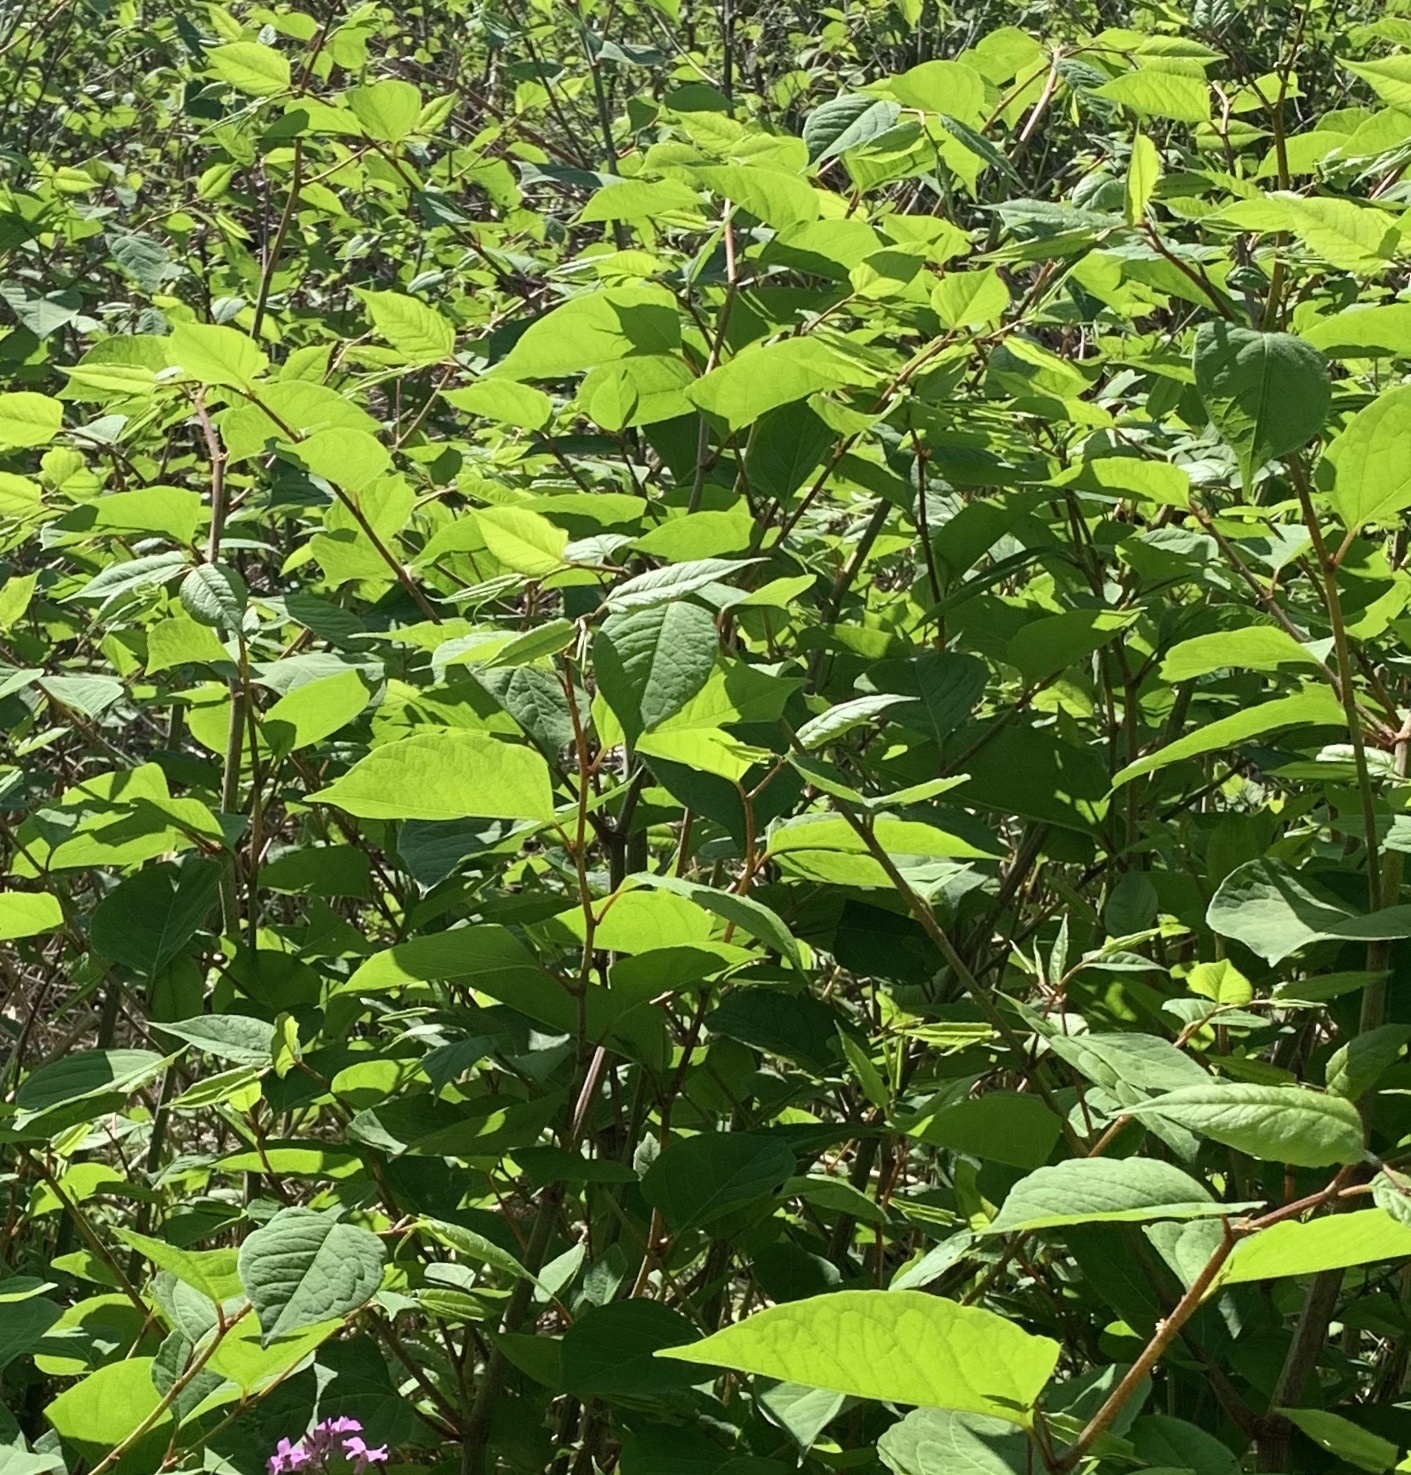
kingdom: Plantae
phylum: Tracheophyta
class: Magnoliopsida
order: Caryophyllales
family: Polygonaceae
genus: Reynoutria
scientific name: Reynoutria japonica
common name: Japanese knotweed
